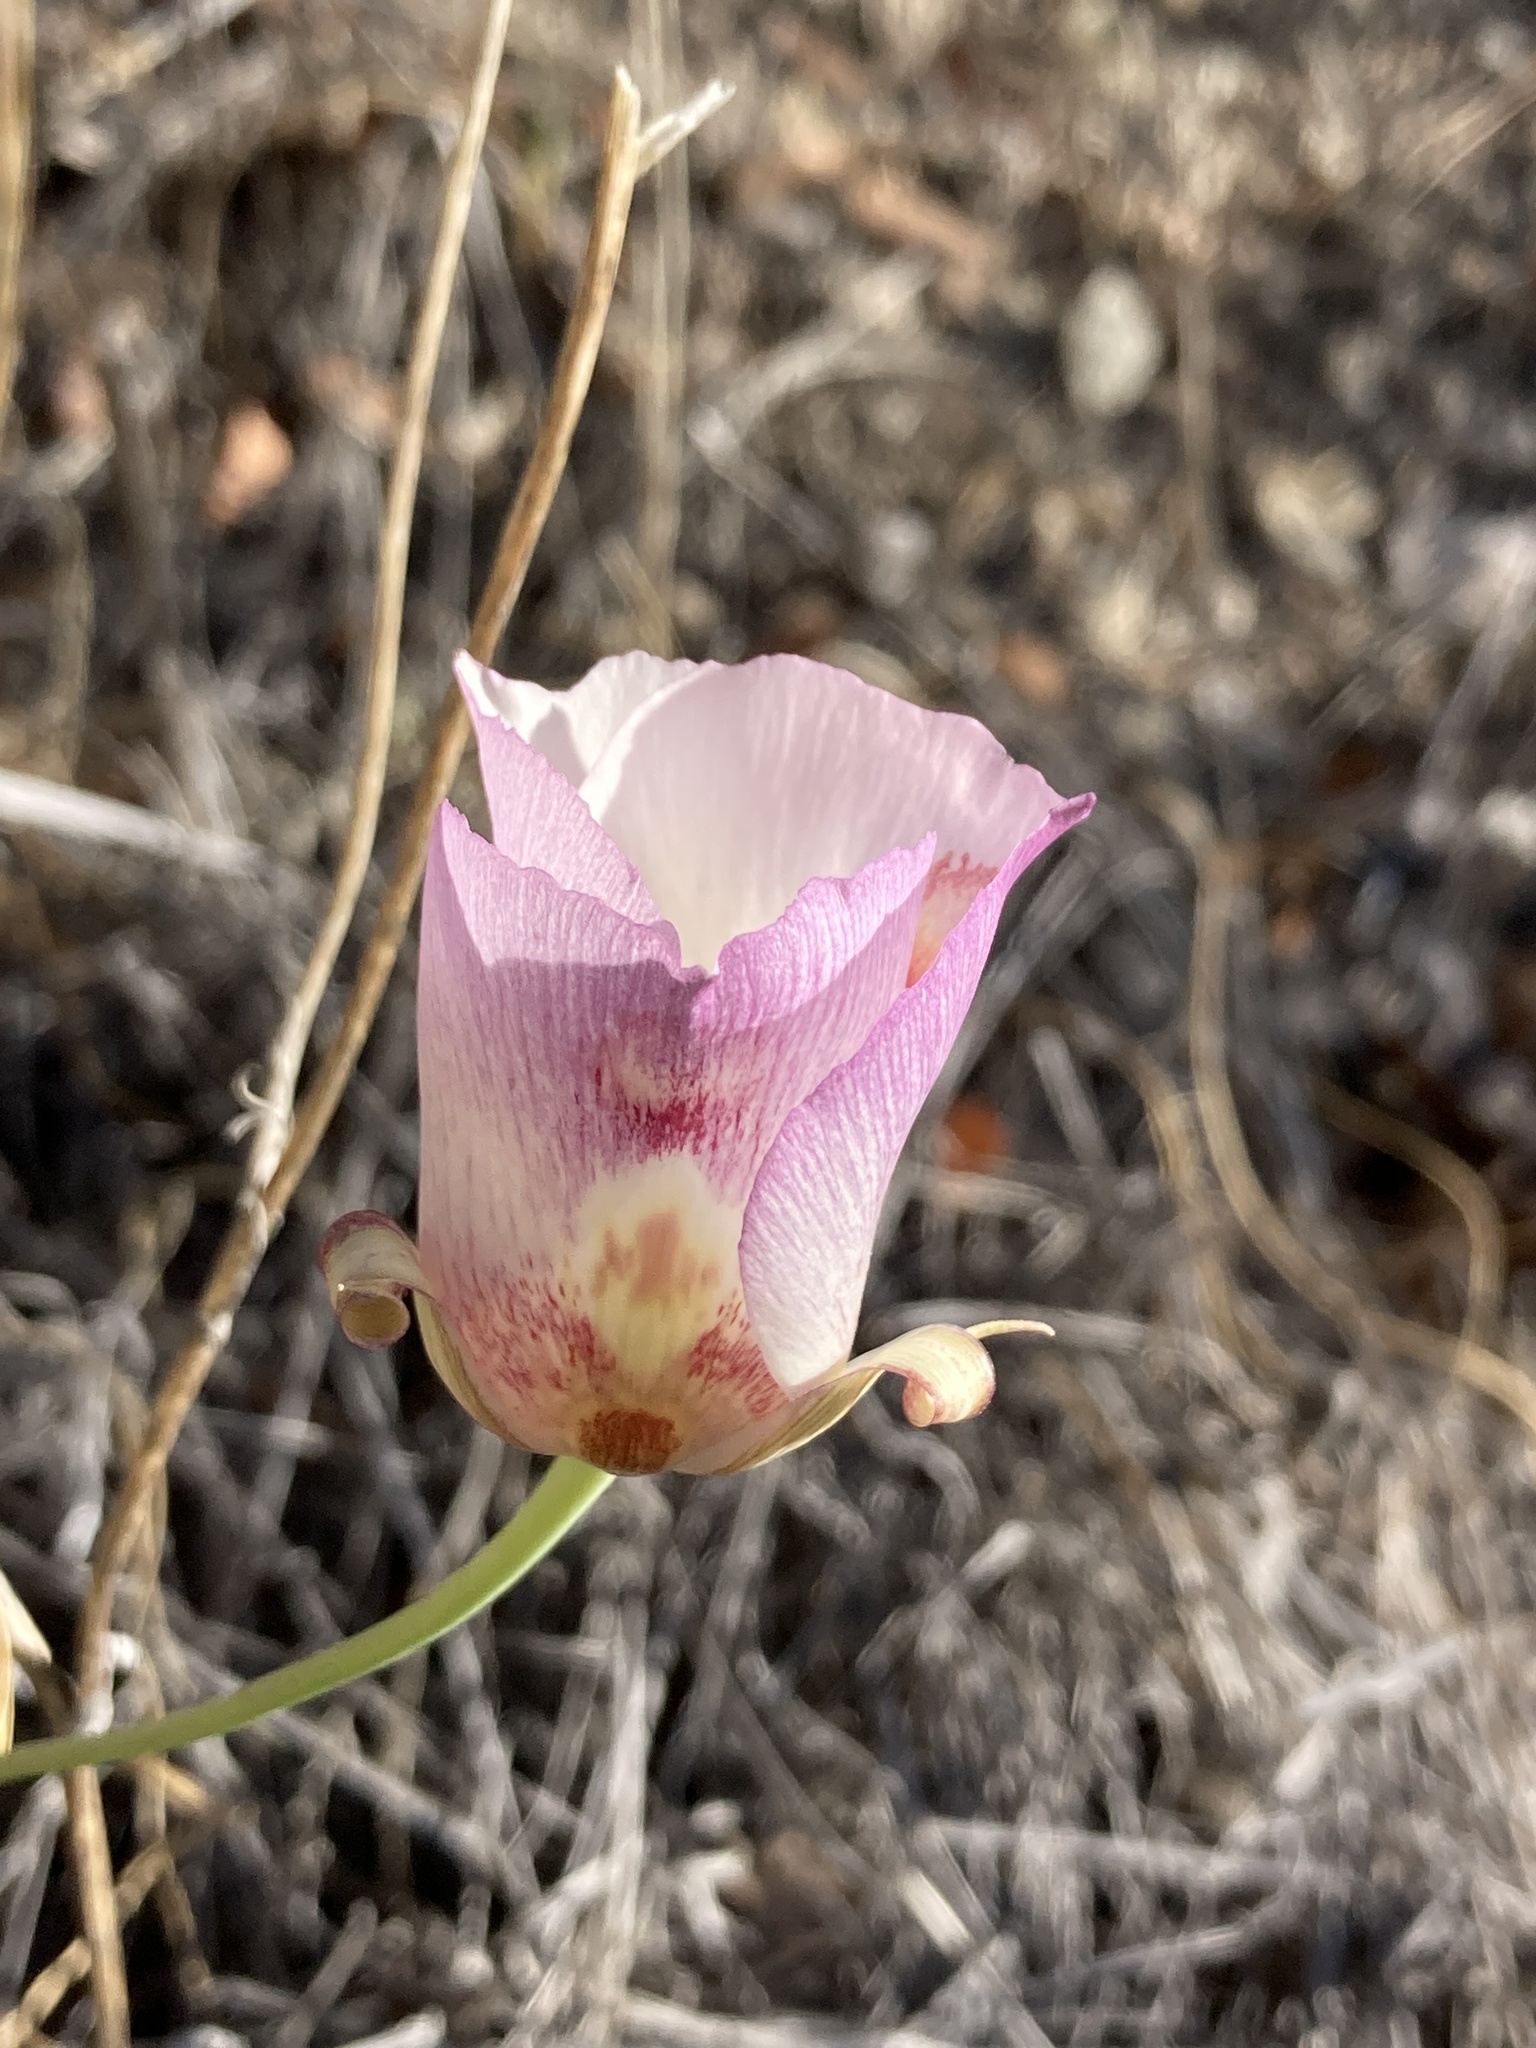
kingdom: Plantae
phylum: Tracheophyta
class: Liliopsida
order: Liliales
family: Liliaceae
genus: Calochortus
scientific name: Calochortus venustus
